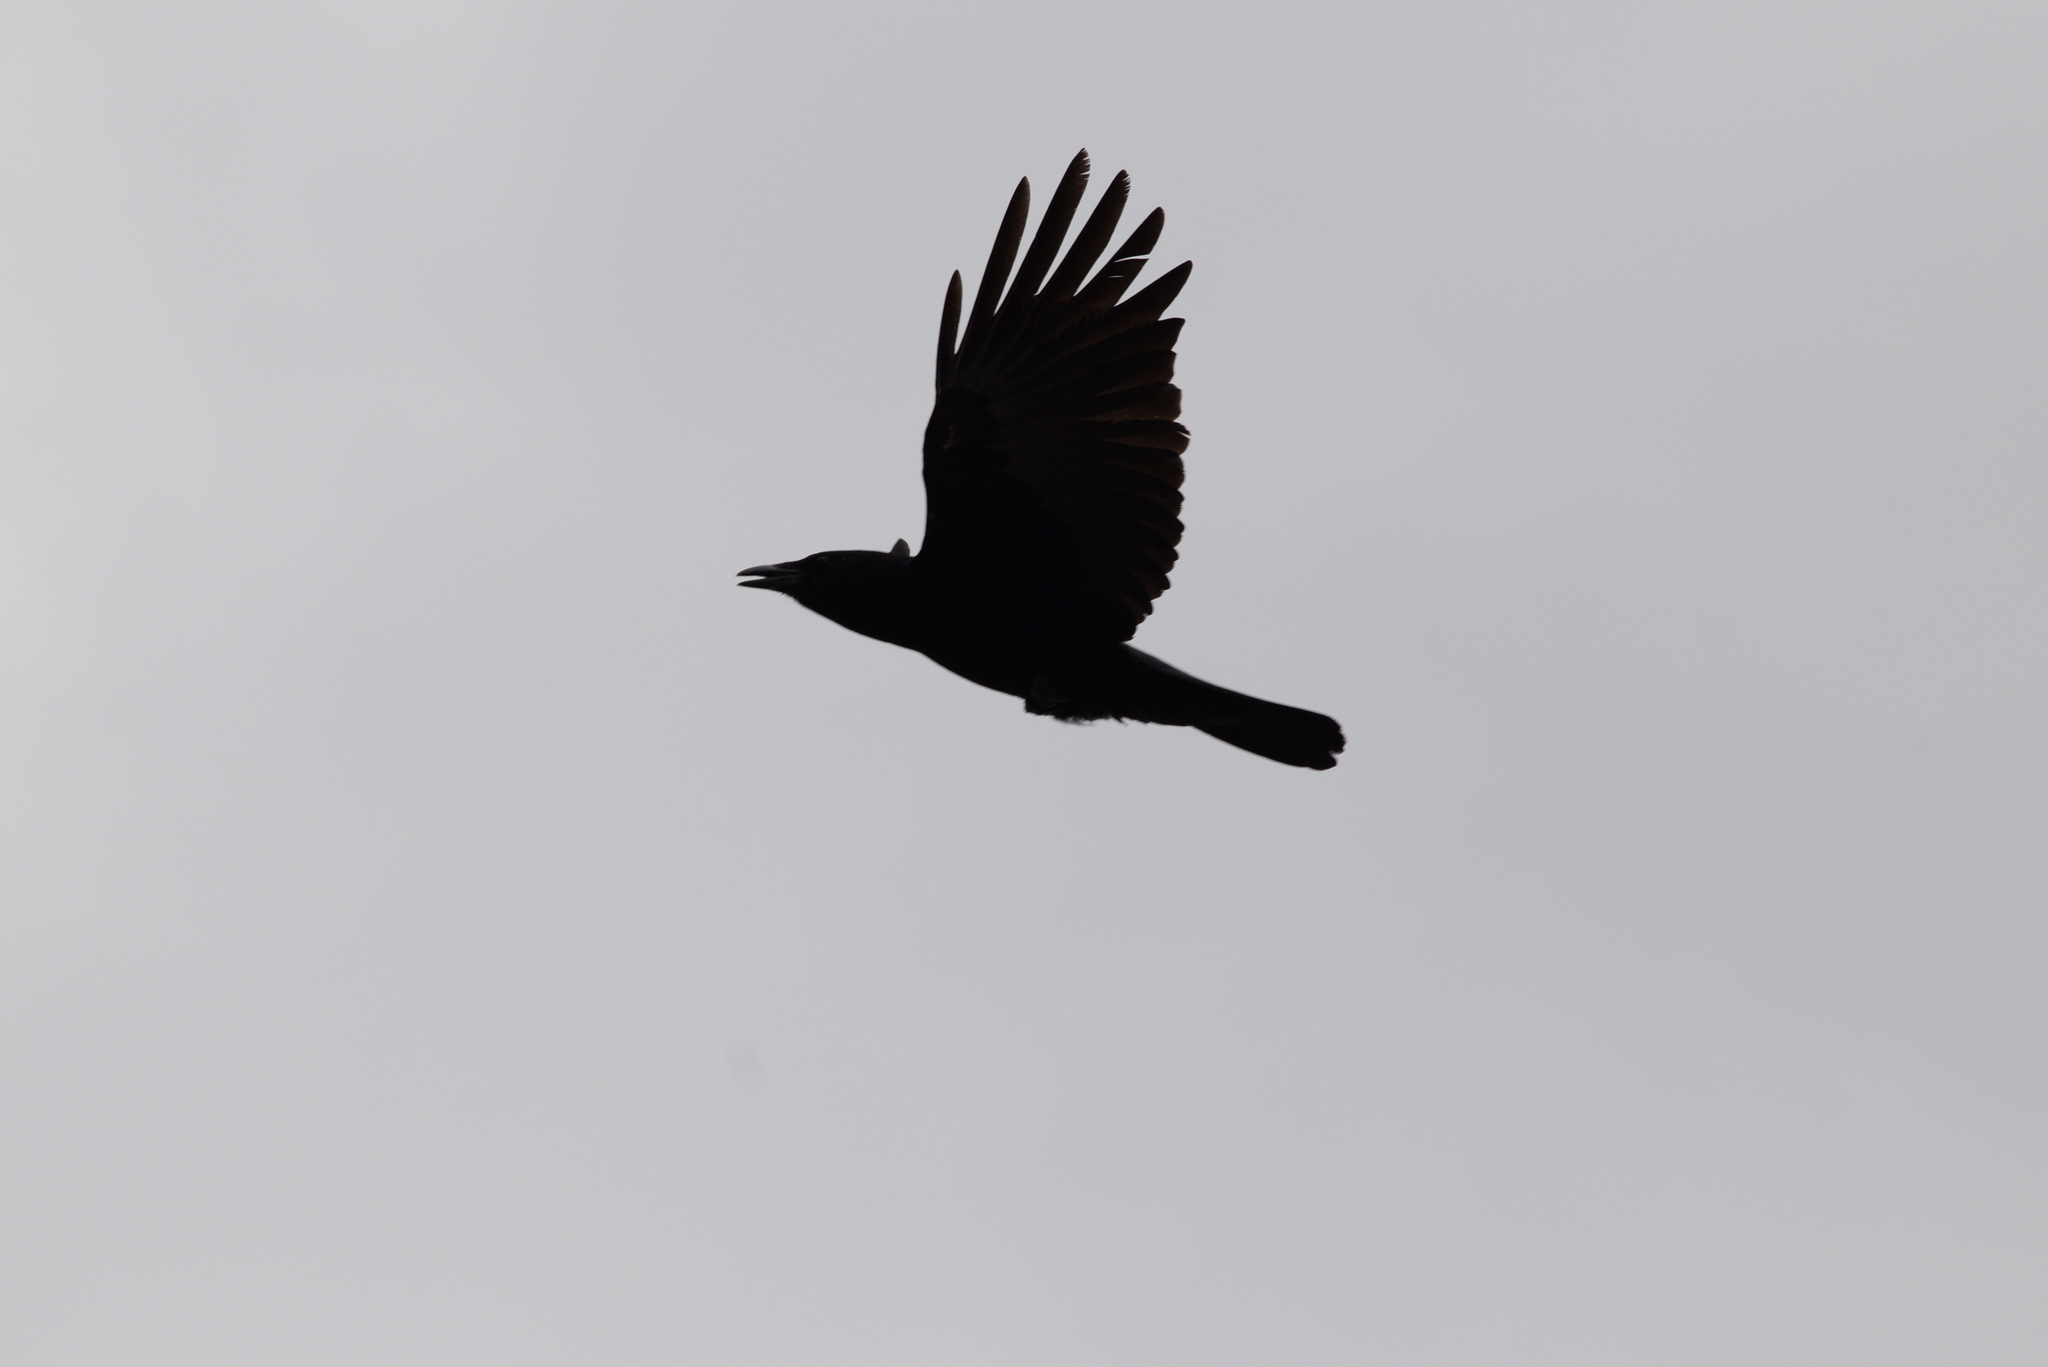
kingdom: Animalia
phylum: Chordata
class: Aves
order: Passeriformes
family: Corvidae
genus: Corvus
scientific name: Corvus brachyrhynchos
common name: American crow
